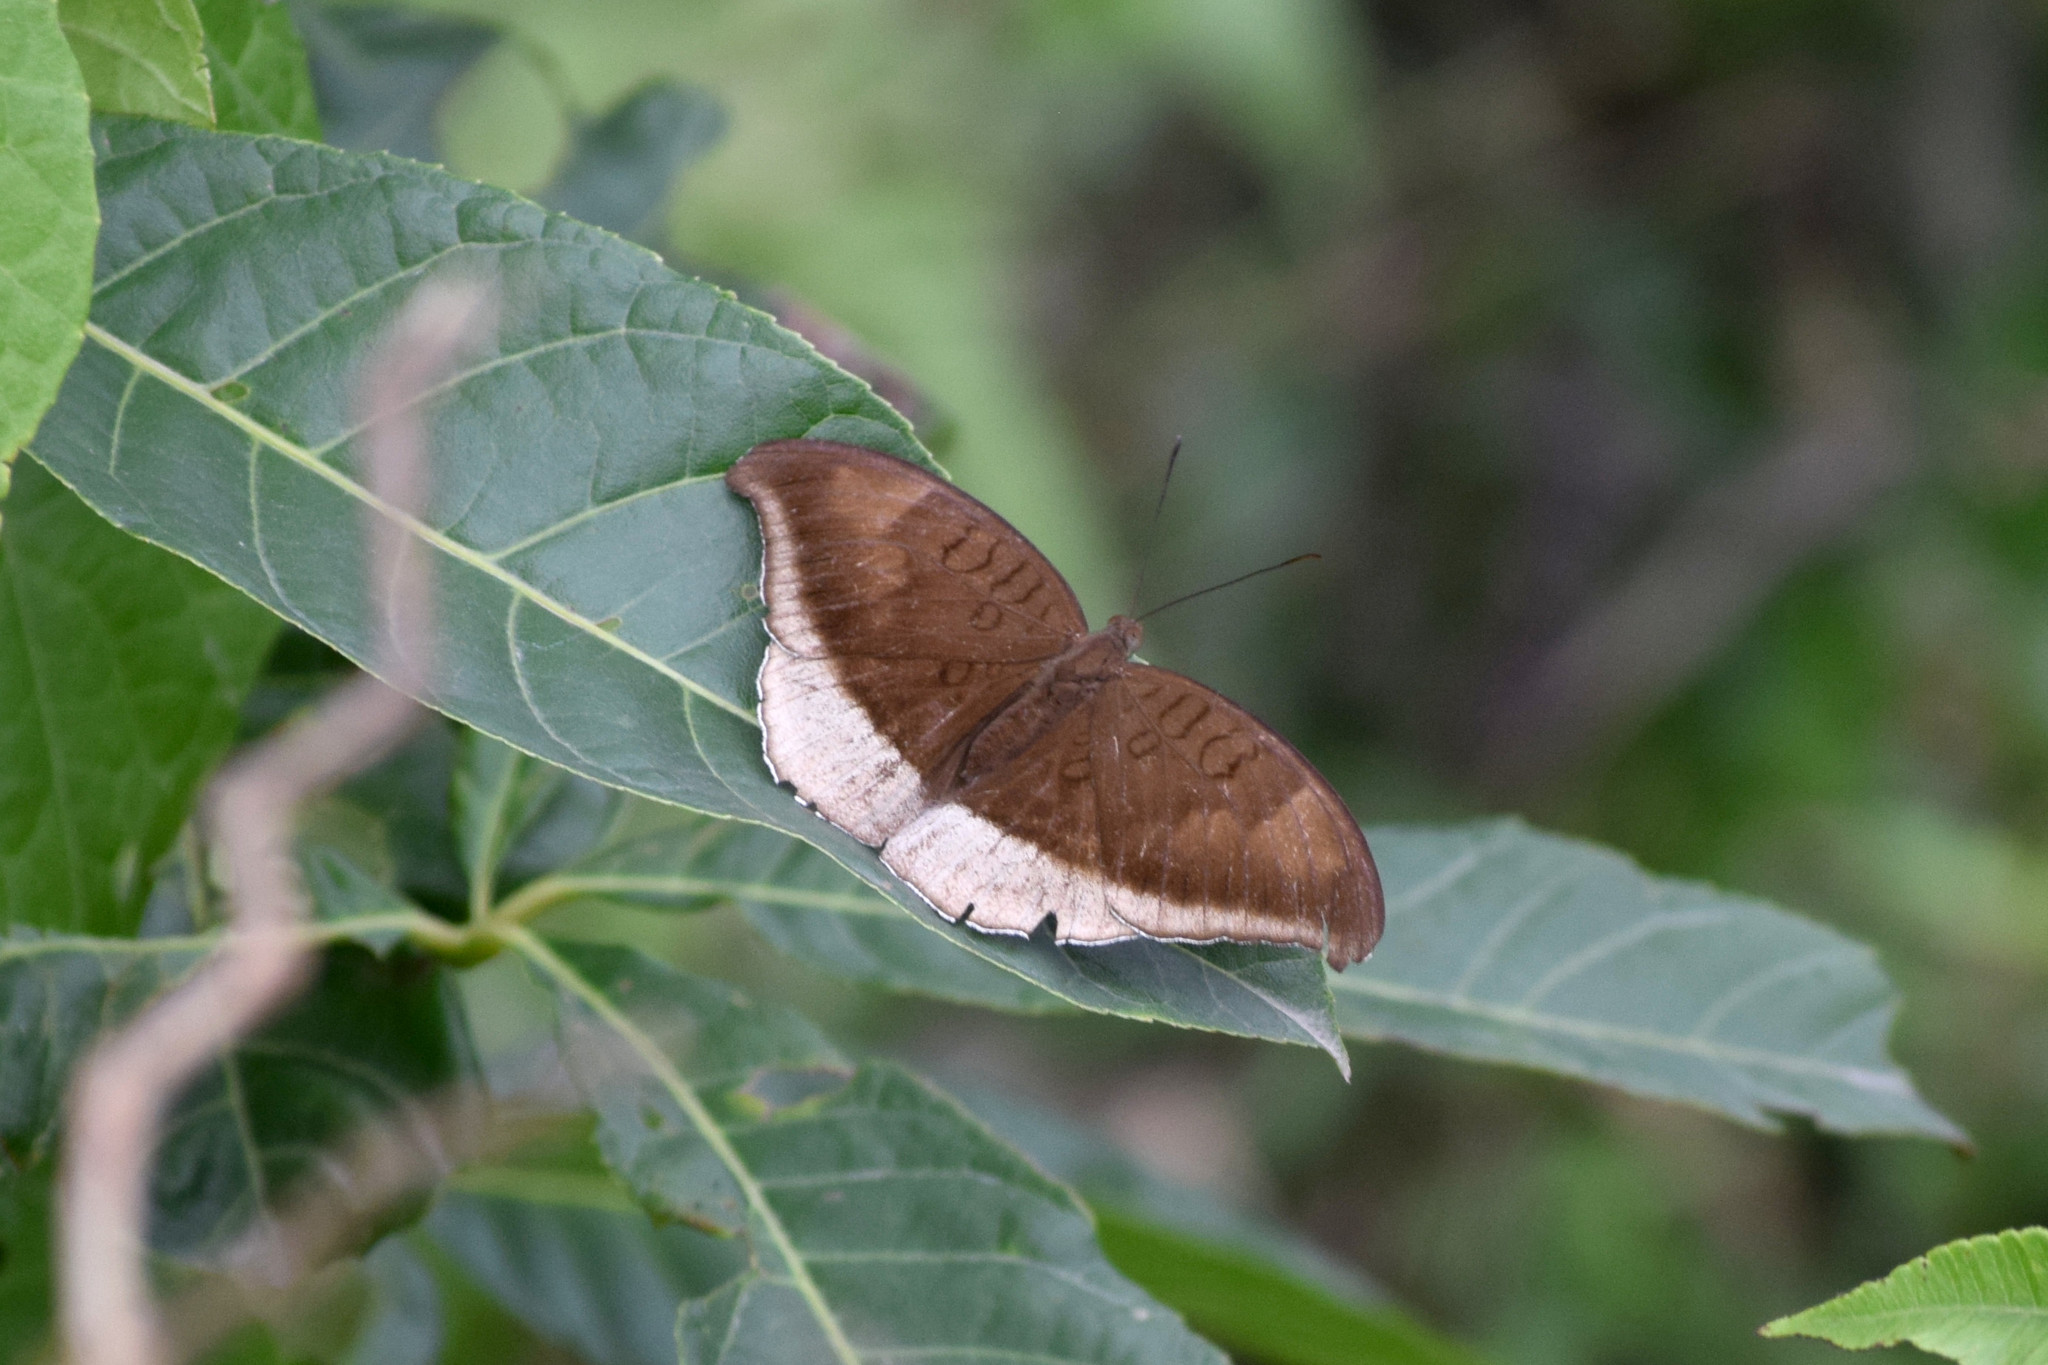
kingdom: Animalia
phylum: Arthropoda
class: Insecta
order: Lepidoptera
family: Nymphalidae
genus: Tanaecia
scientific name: Tanaecia lepidea
